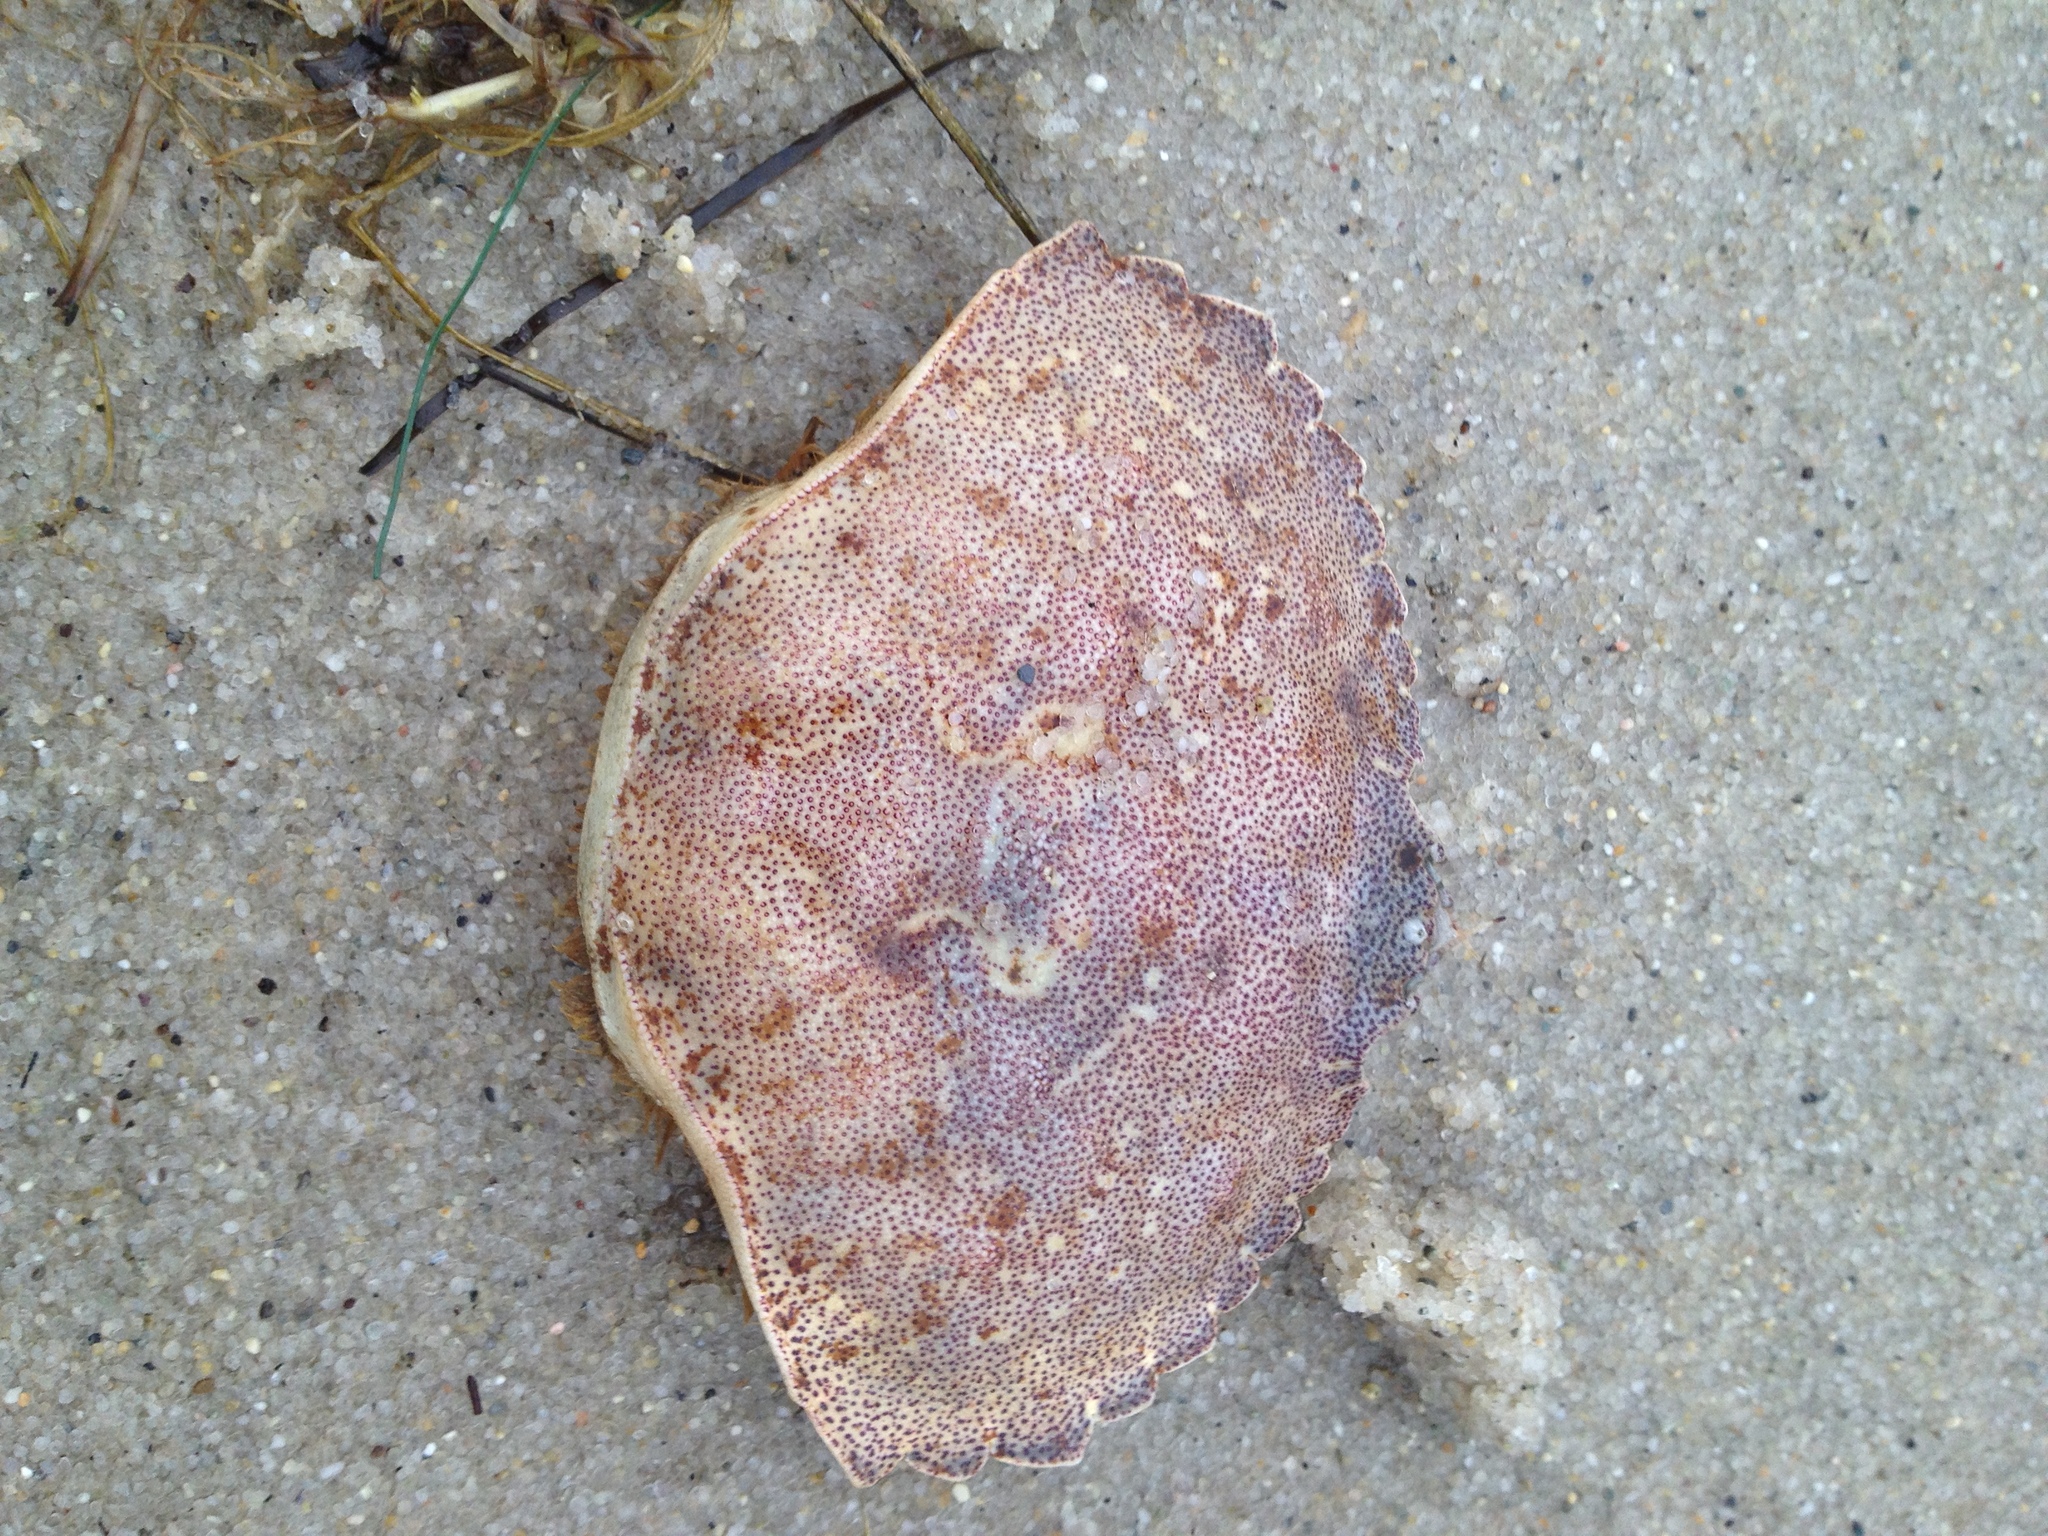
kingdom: Animalia
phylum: Arthropoda
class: Malacostraca
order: Decapoda
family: Cancridae
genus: Cancer
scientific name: Cancer irroratus
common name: Atlantic rock crab
